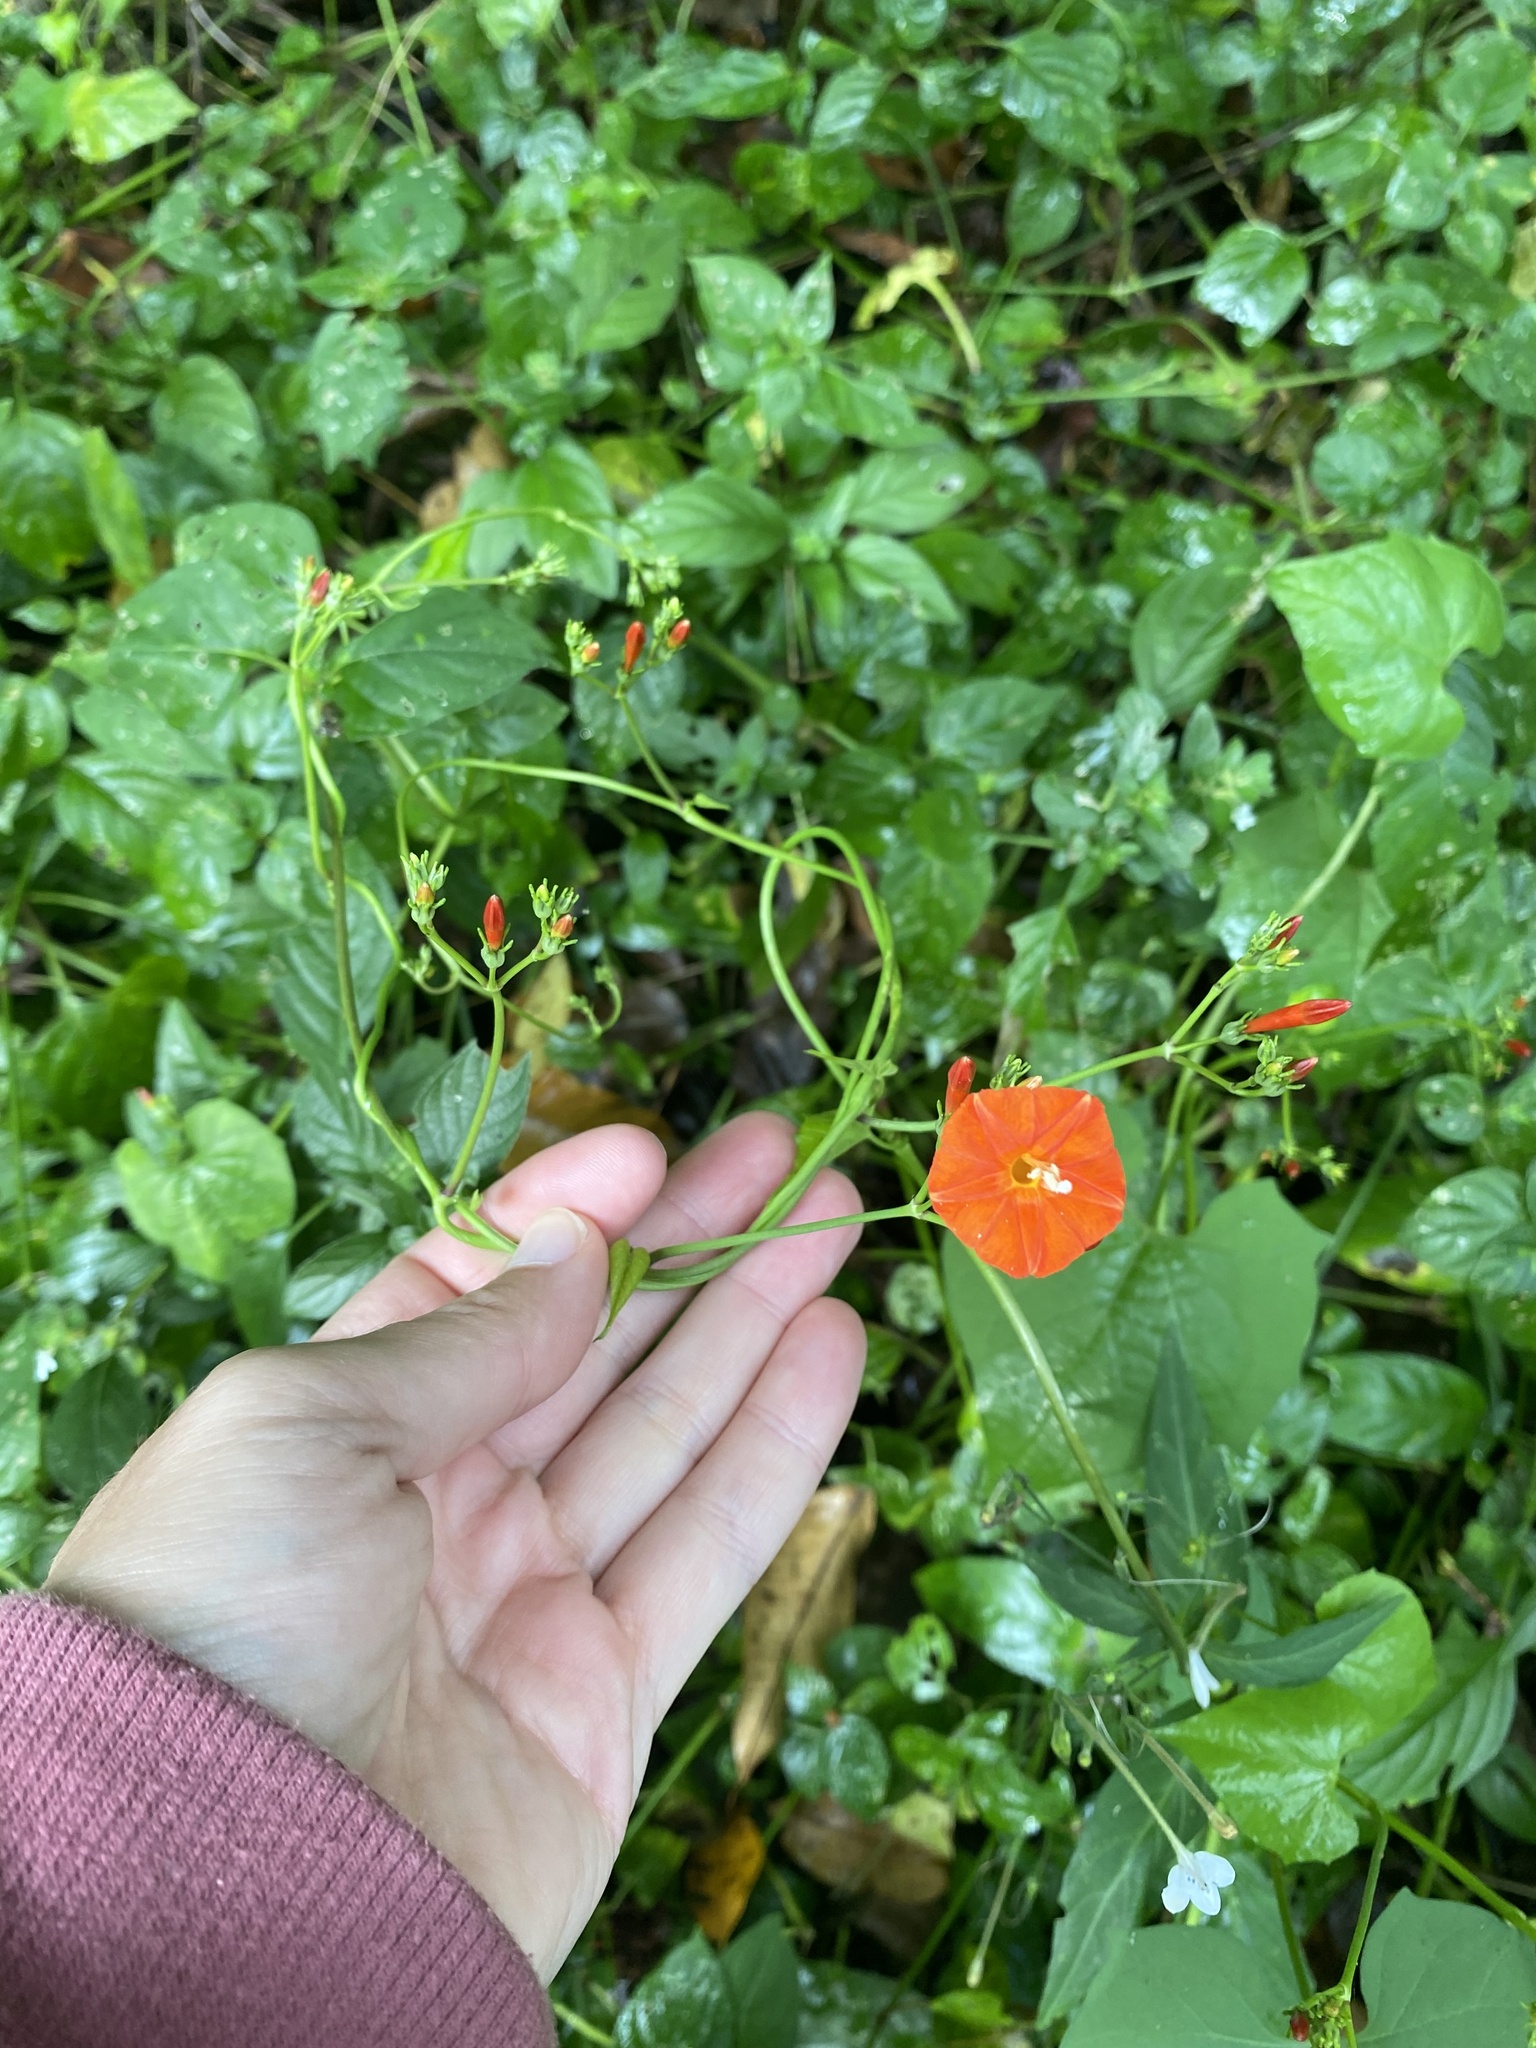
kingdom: Plantae
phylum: Tracheophyta
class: Magnoliopsida
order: Solanales
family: Convolvulaceae
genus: Ipomoea
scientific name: Ipomoea hederifolia
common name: Ivy-leaf morning-glory
